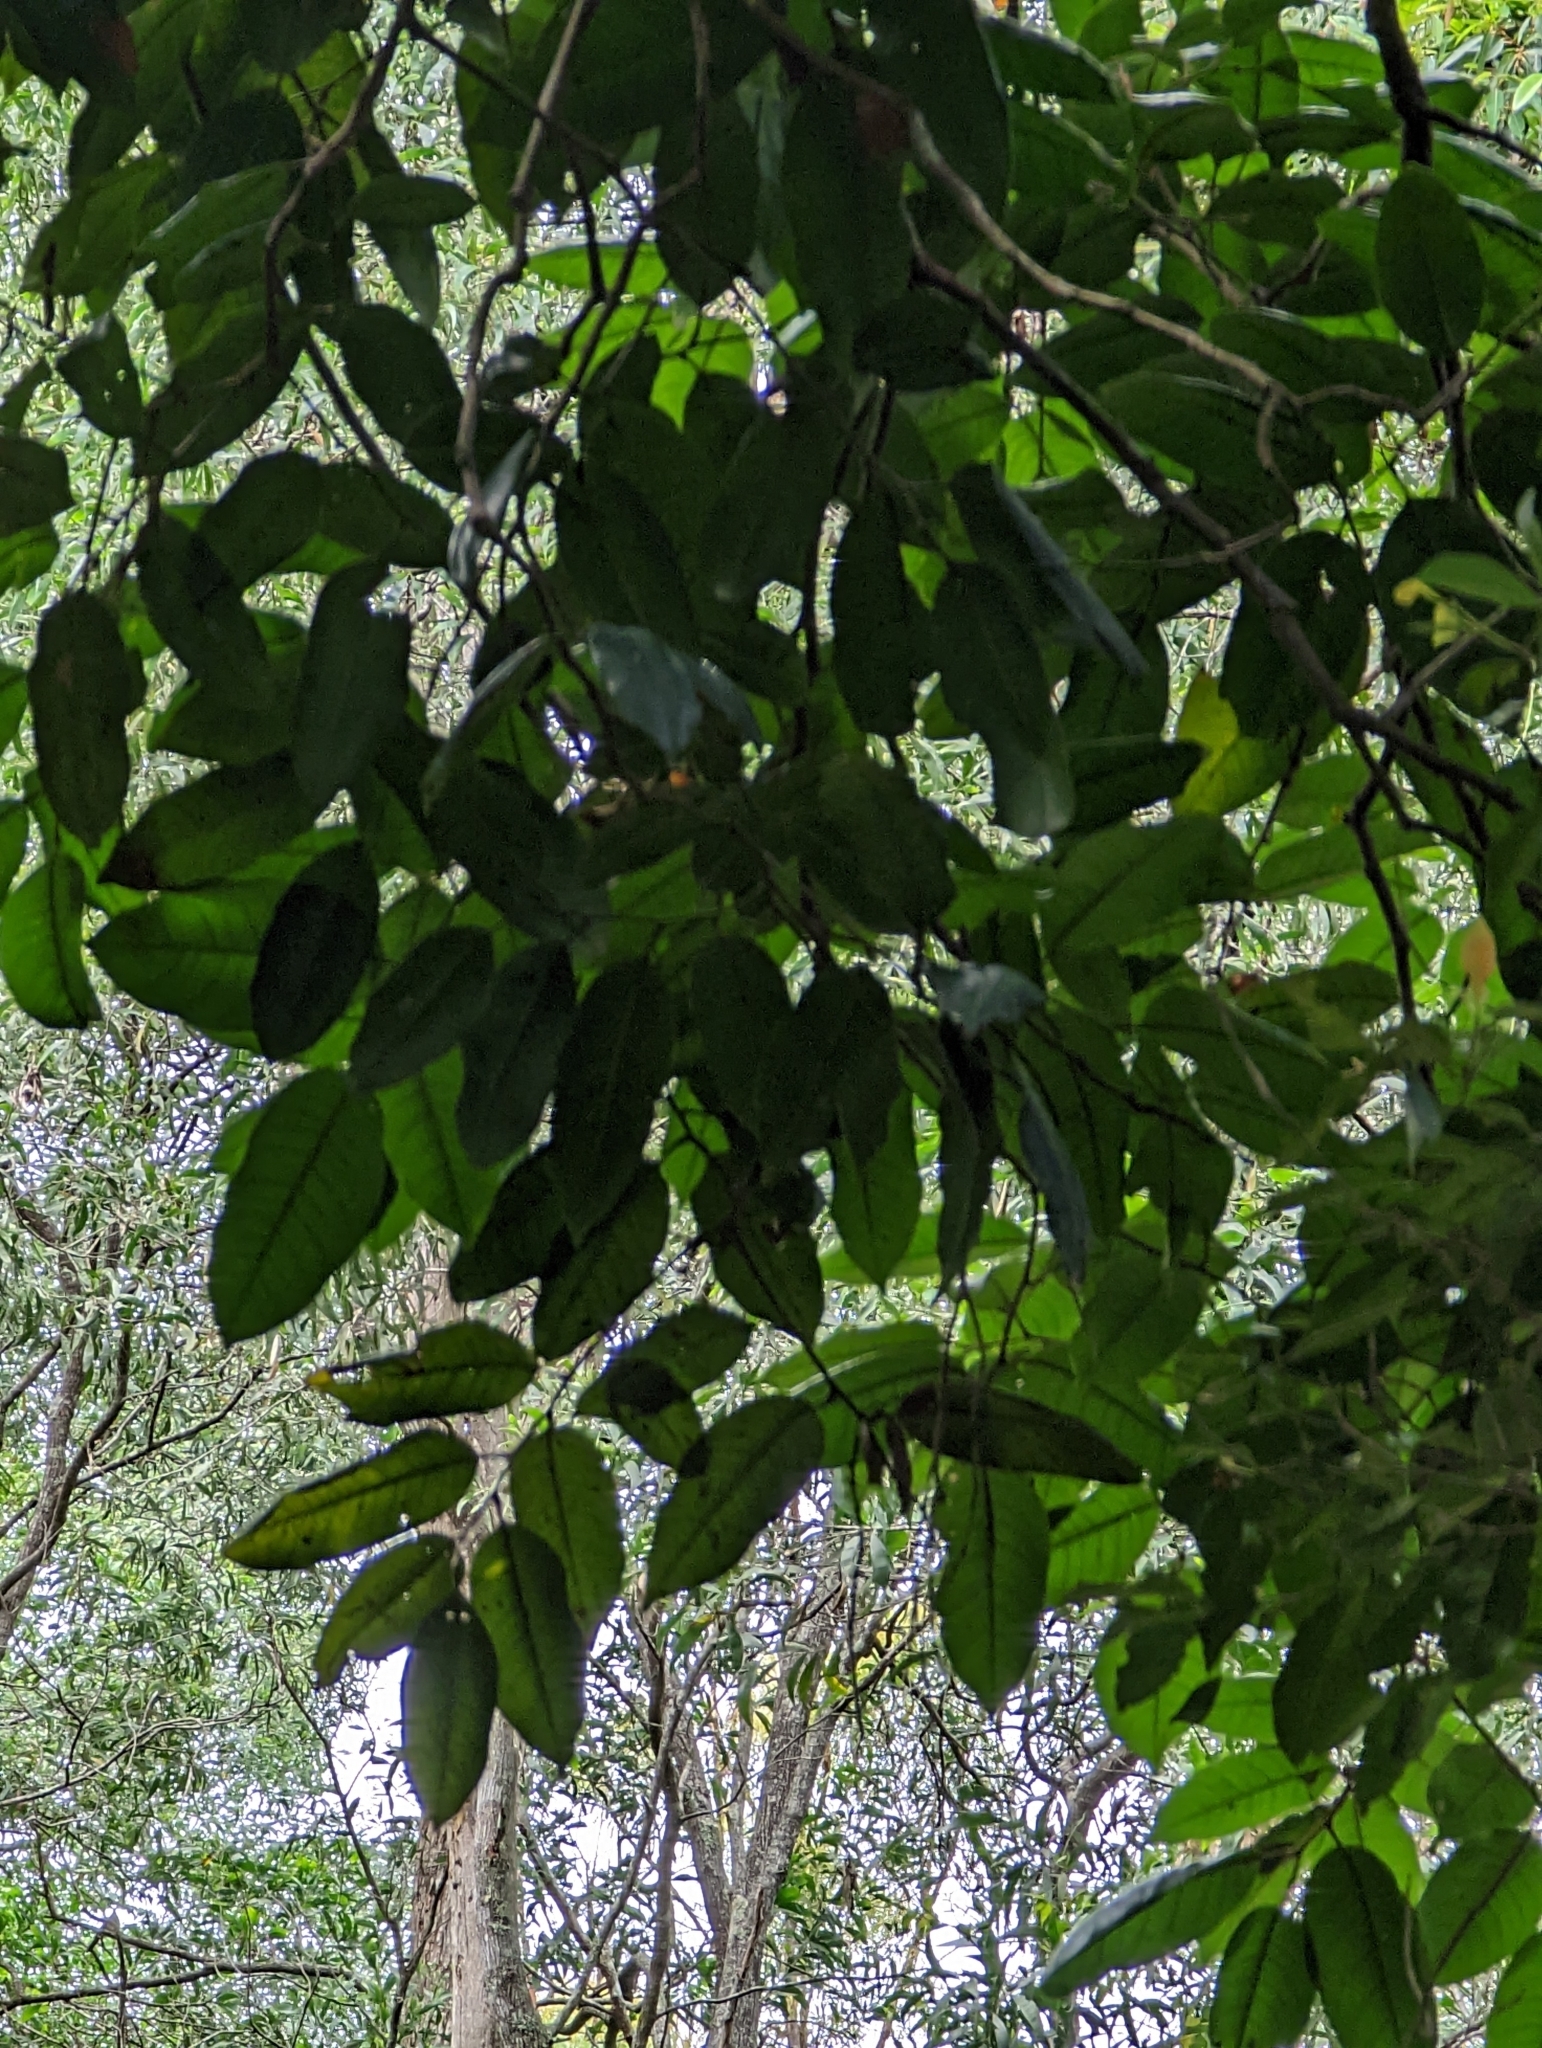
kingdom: Plantae
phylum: Tracheophyta
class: Magnoliopsida
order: Sapindales
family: Sapindaceae
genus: Mischocarpus
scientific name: Mischocarpus pyriformis
